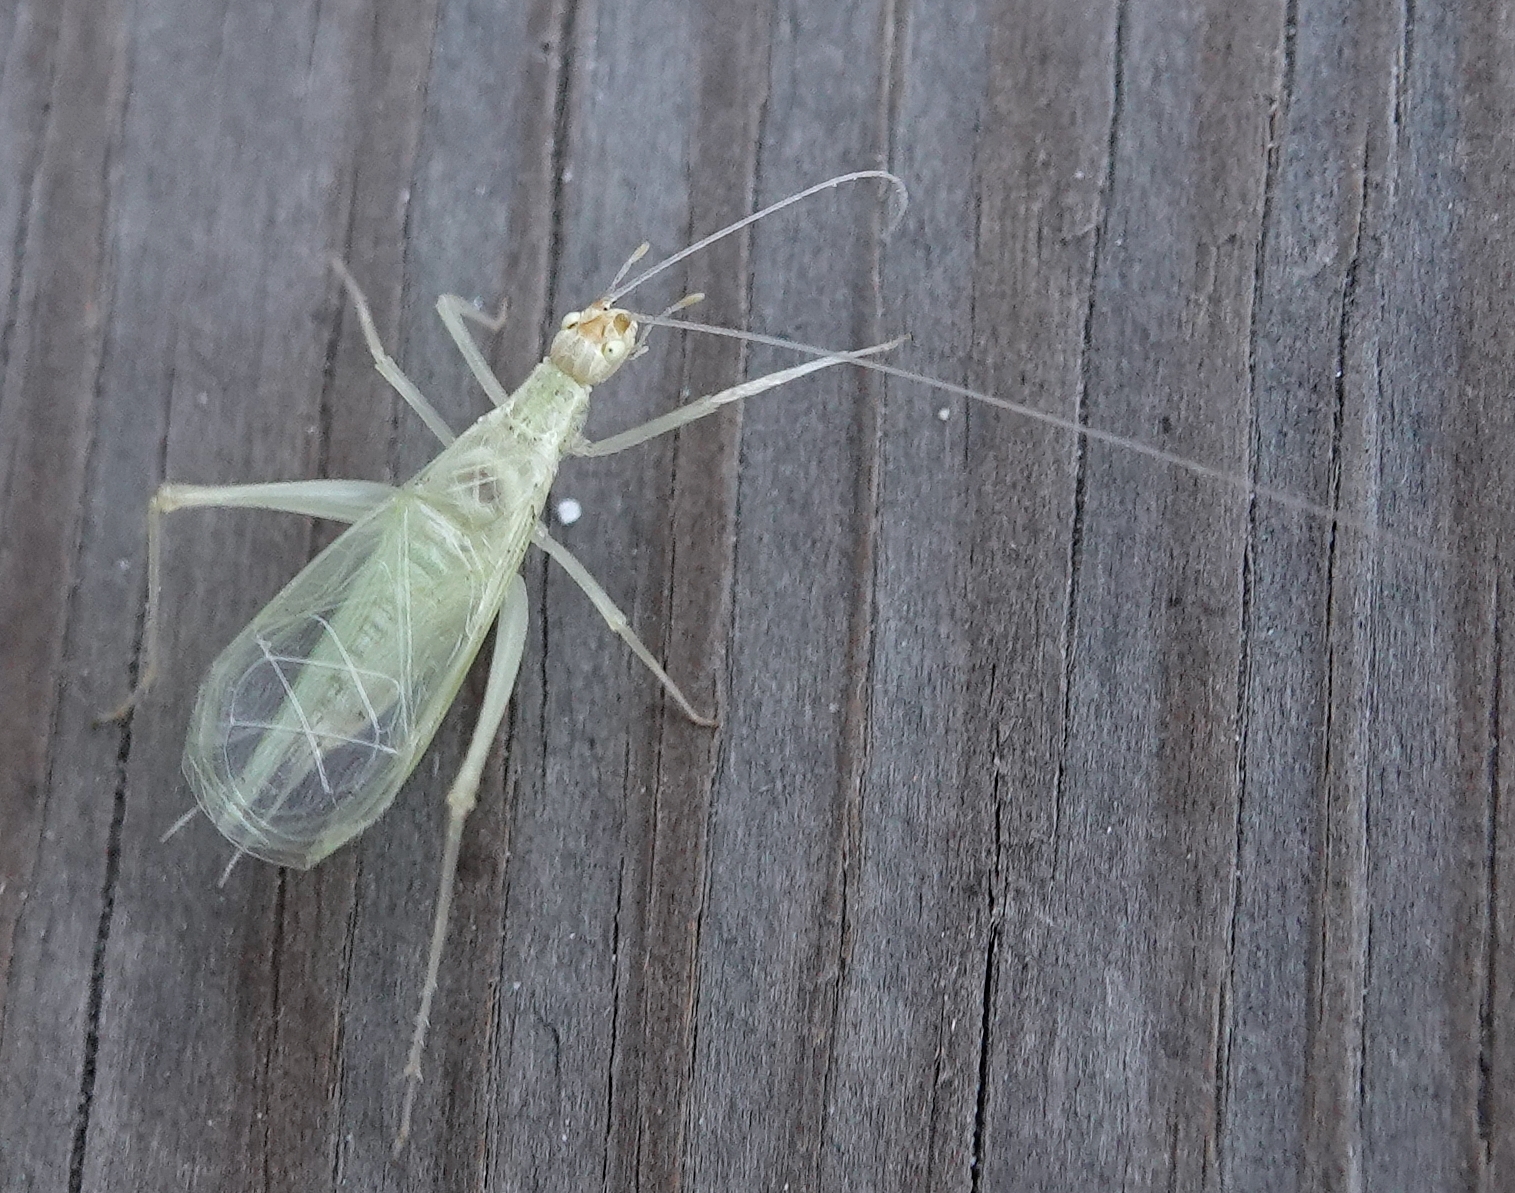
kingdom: Animalia
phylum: Arthropoda
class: Insecta
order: Orthoptera
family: Gryllidae
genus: Oecanthus
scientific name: Oecanthus
